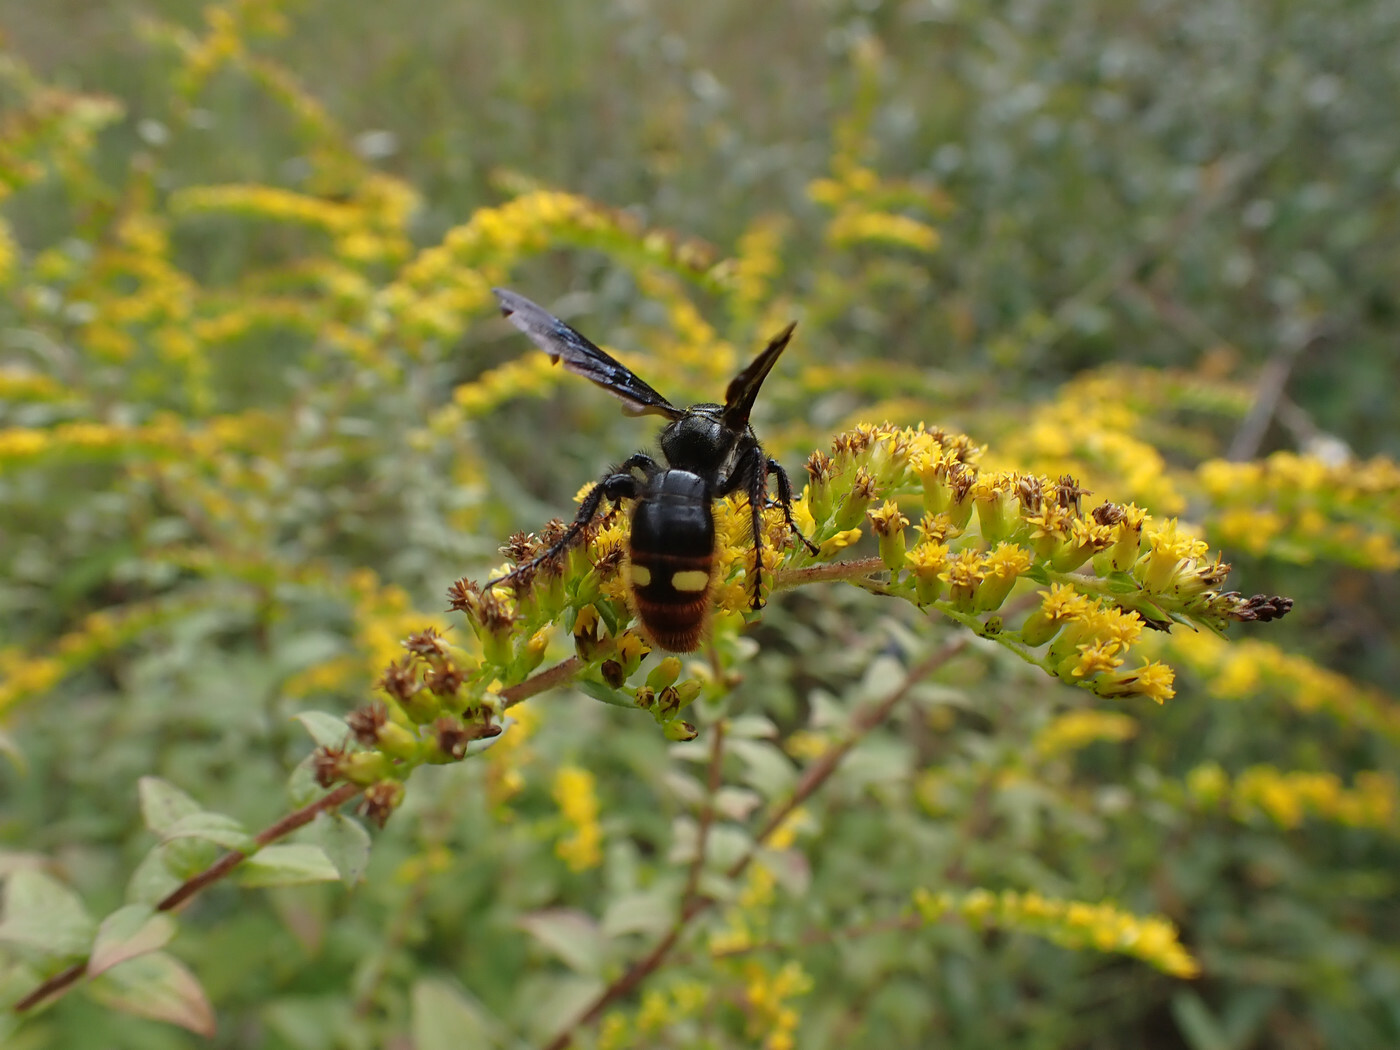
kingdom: Animalia
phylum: Arthropoda
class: Insecta
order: Hymenoptera
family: Scoliidae
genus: Scolia
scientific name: Scolia dubia
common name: Blue-winged scoliid wasp
